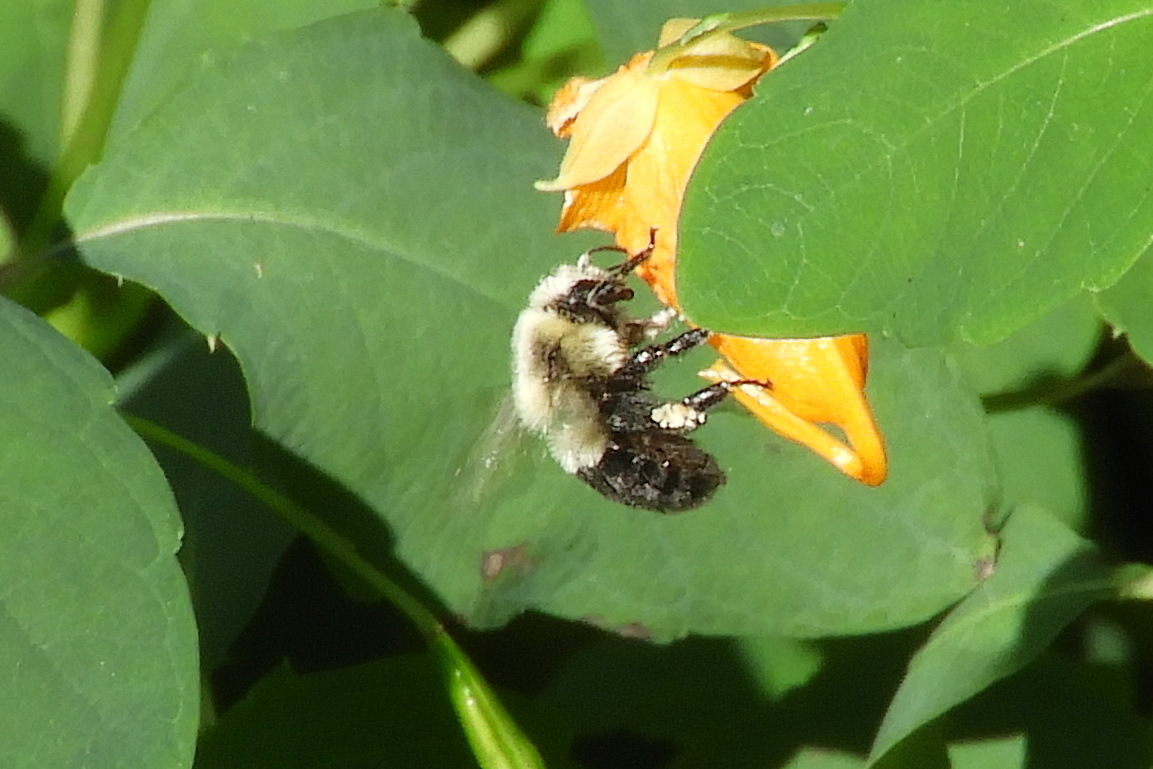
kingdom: Animalia
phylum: Arthropoda
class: Insecta
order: Hymenoptera
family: Apidae
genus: Bombus
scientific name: Bombus impatiens
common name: Common eastern bumble bee
